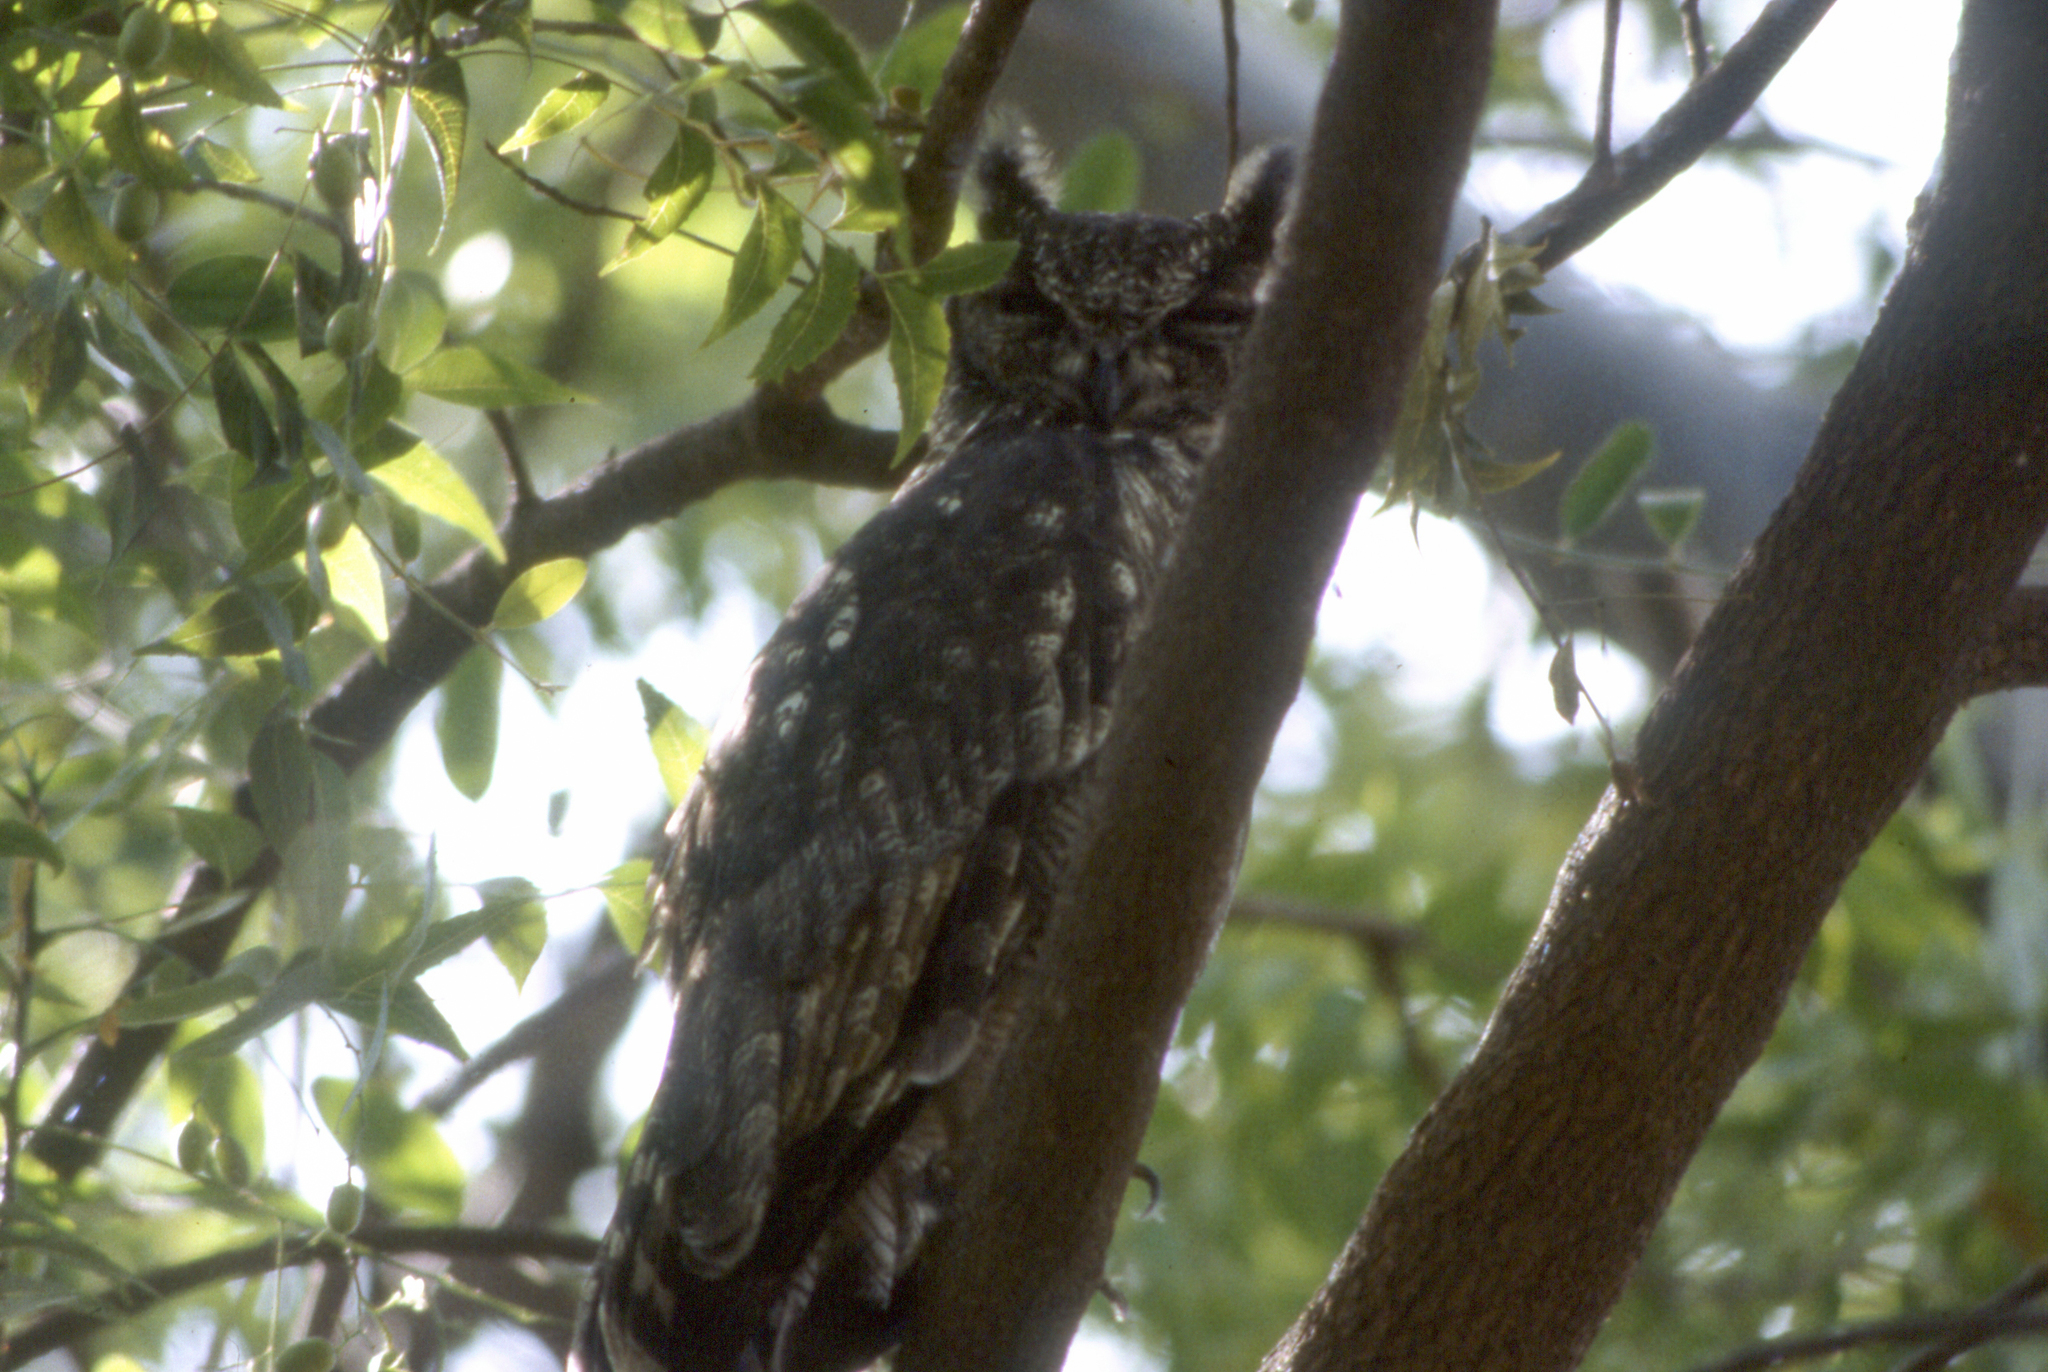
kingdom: Animalia
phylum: Chordata
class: Aves
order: Strigiformes
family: Strigidae
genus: Bubo
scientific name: Bubo cinerascens
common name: Greyish eagle-owl
